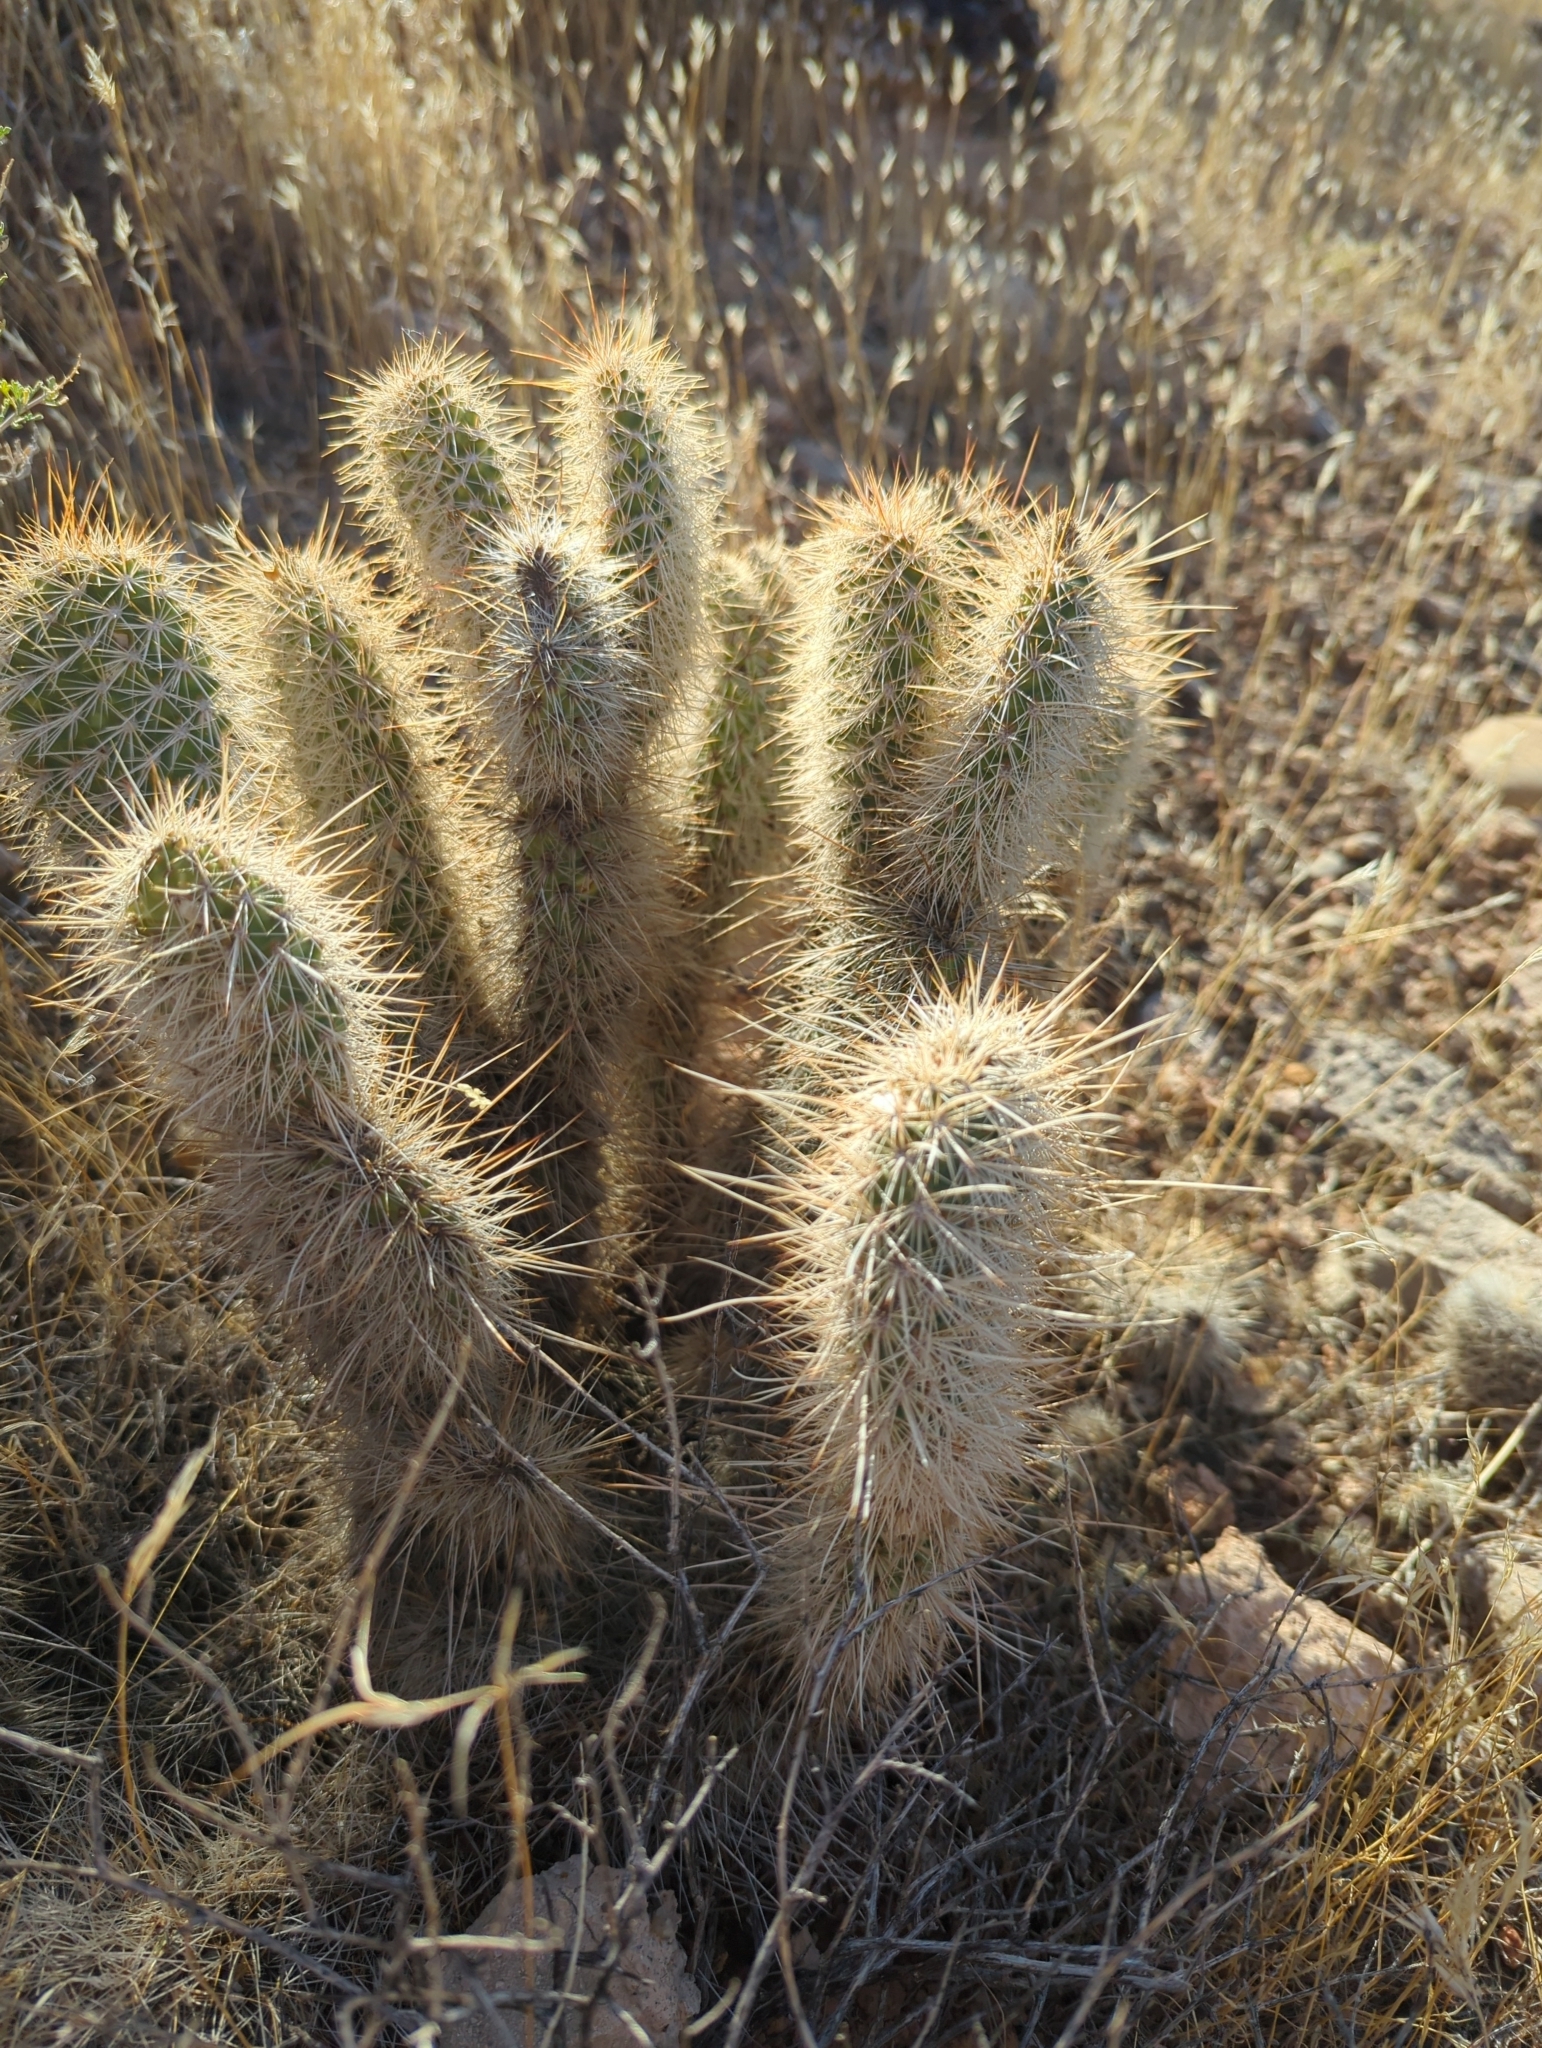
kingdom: Plantae
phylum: Tracheophyta
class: Magnoliopsida
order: Caryophyllales
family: Cactaceae
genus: Opuntia
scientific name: Opuntia polyacantha
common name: Plains prickly-pear
